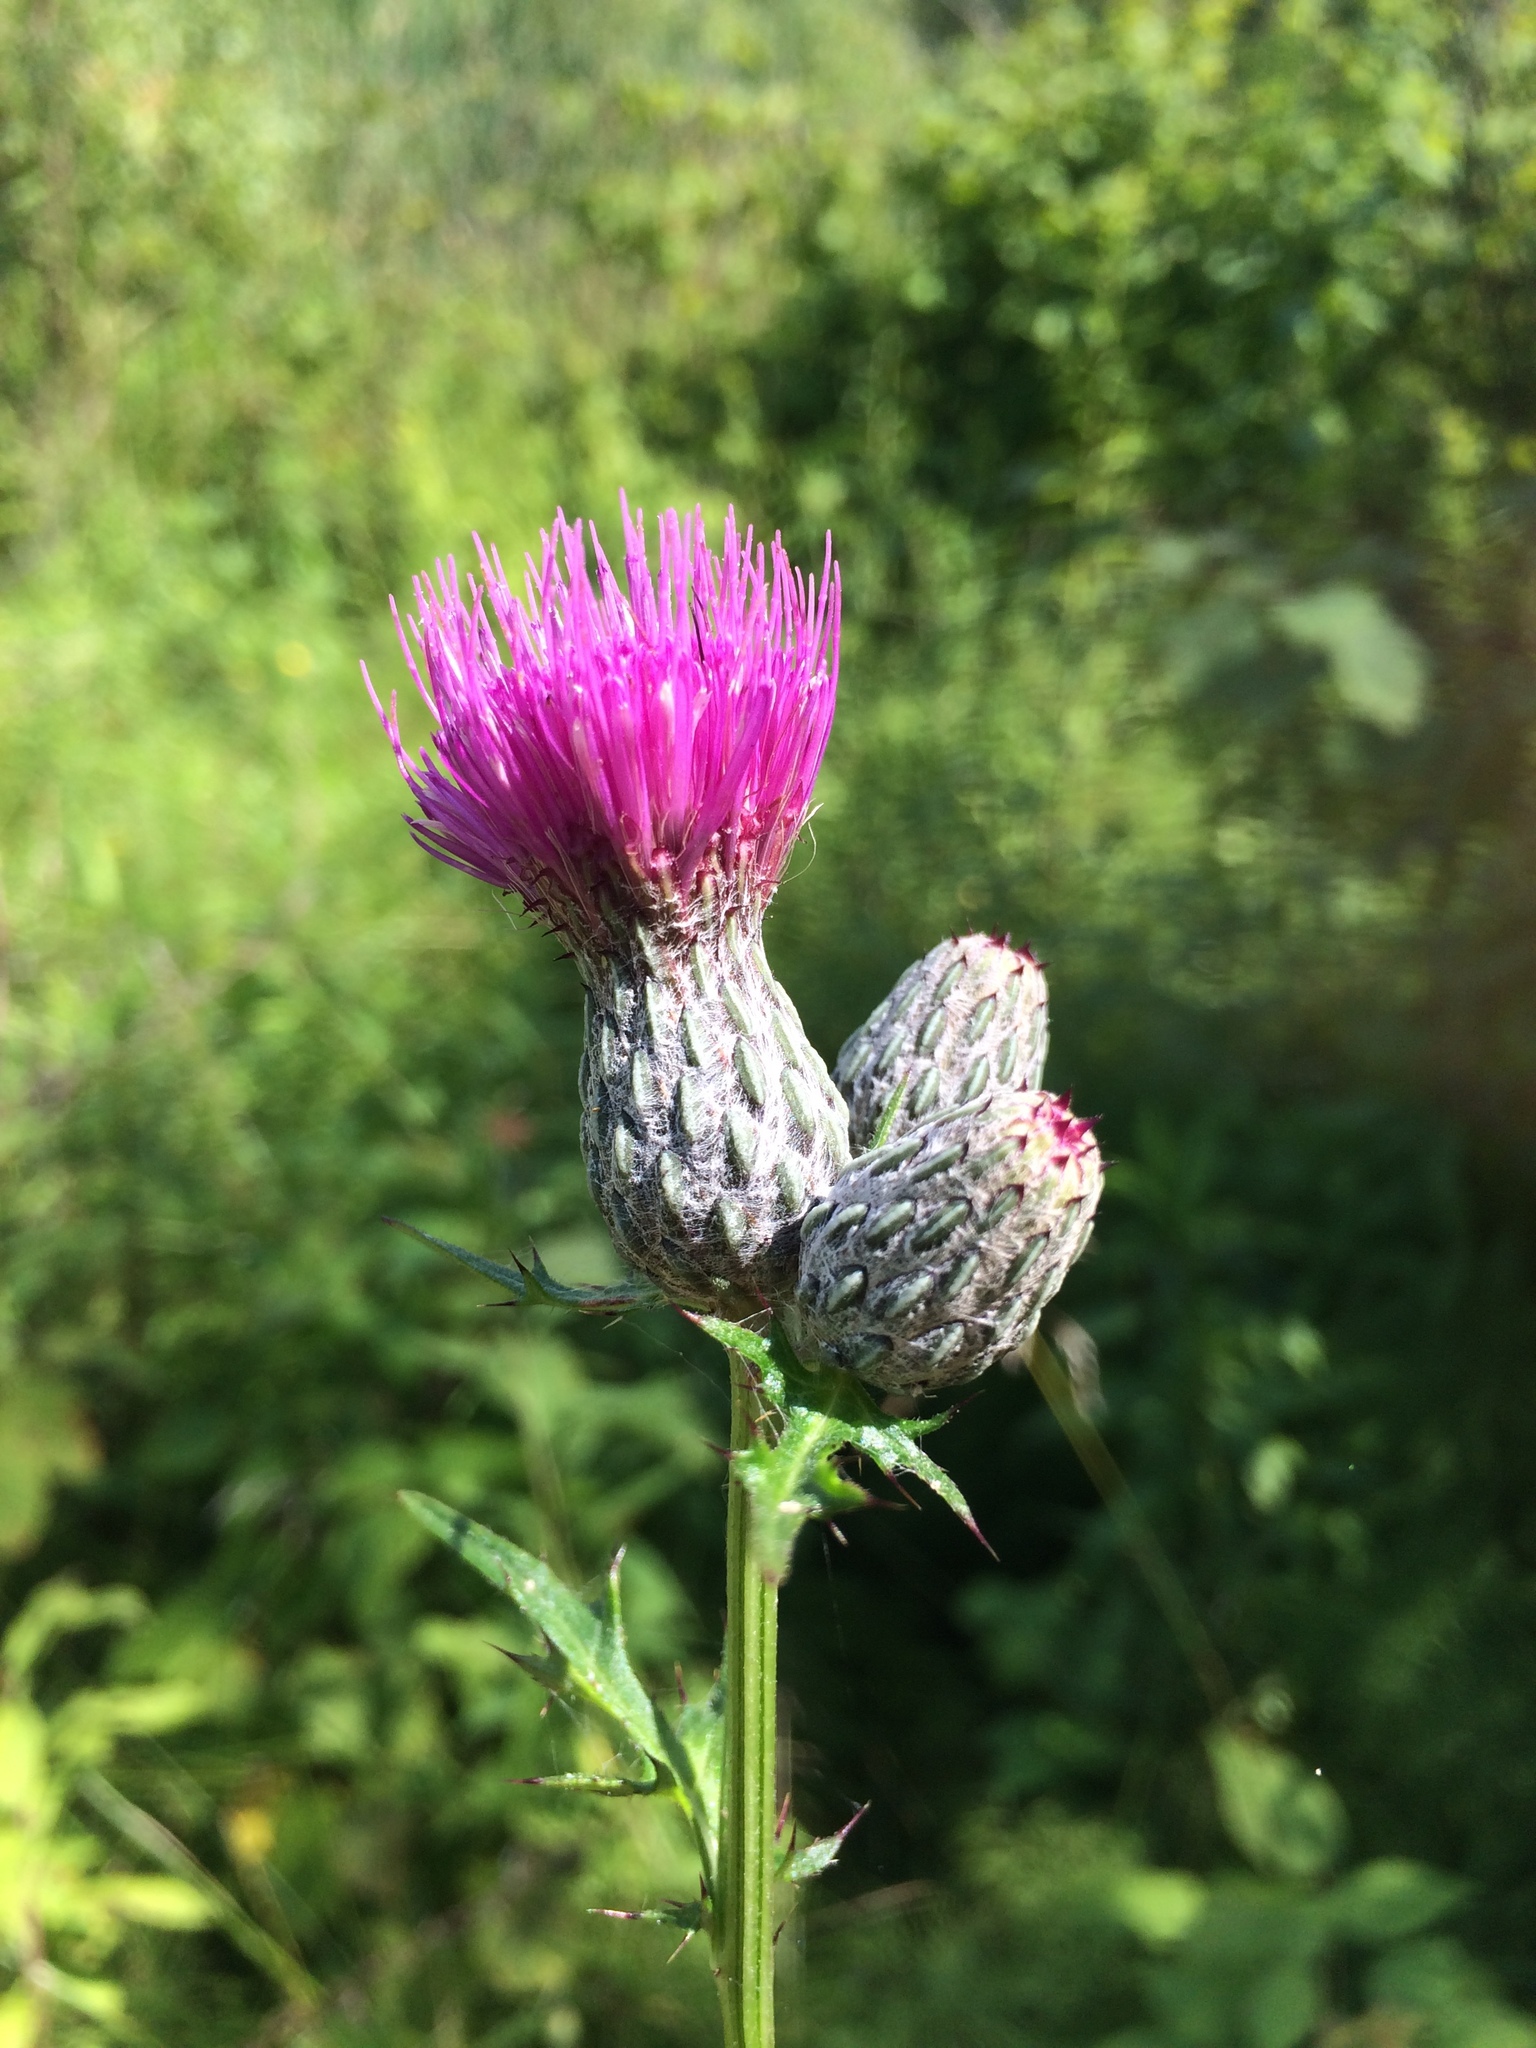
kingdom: Plantae
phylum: Tracheophyta
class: Magnoliopsida
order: Asterales
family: Asteraceae
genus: Cirsium
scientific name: Cirsium muticum
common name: Dunce-nettle
